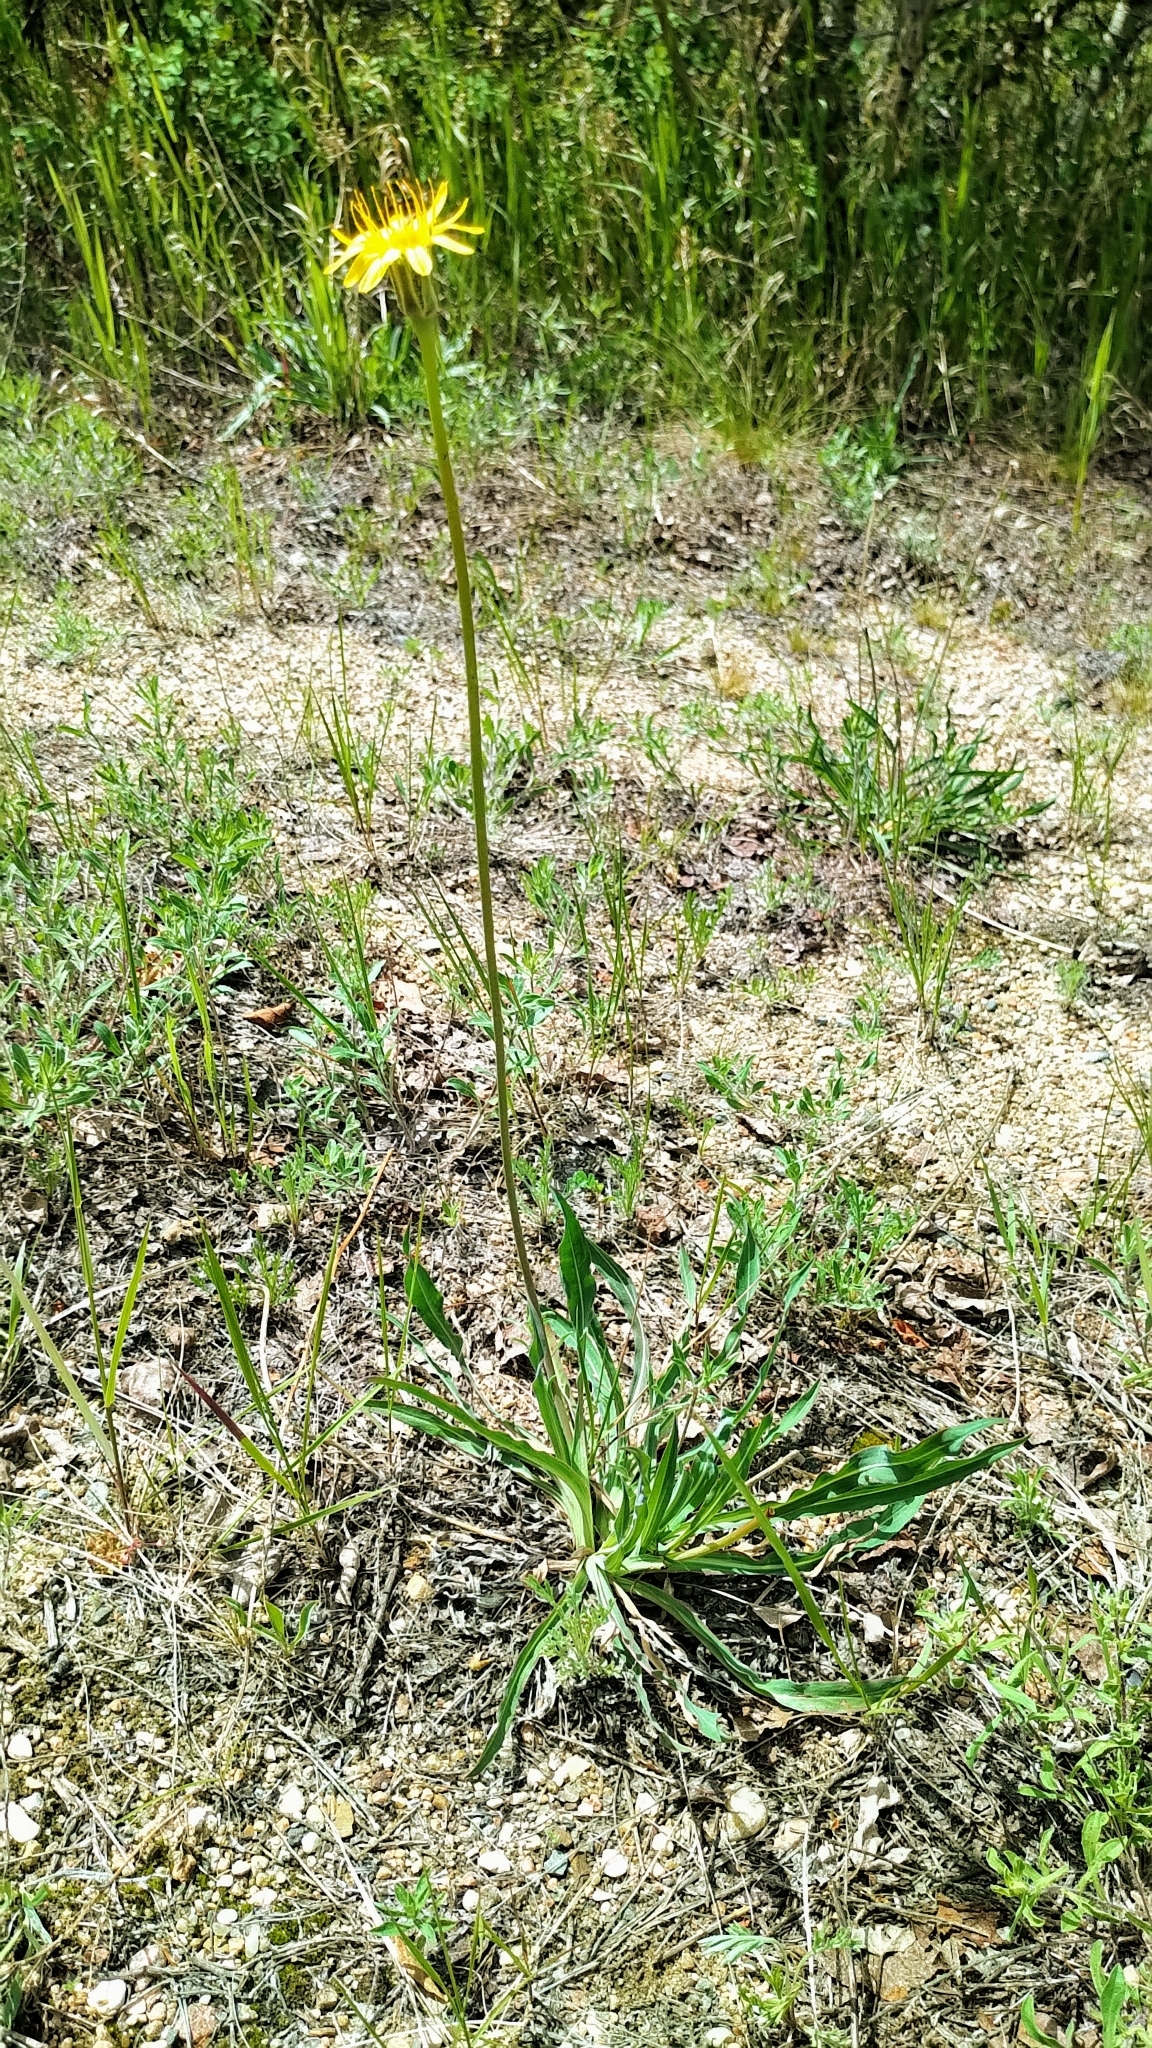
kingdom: Plantae
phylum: Tracheophyta
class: Magnoliopsida
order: Asterales
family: Asteraceae
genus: Agoseris
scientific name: Agoseris glauca
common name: Prairie agoseris
